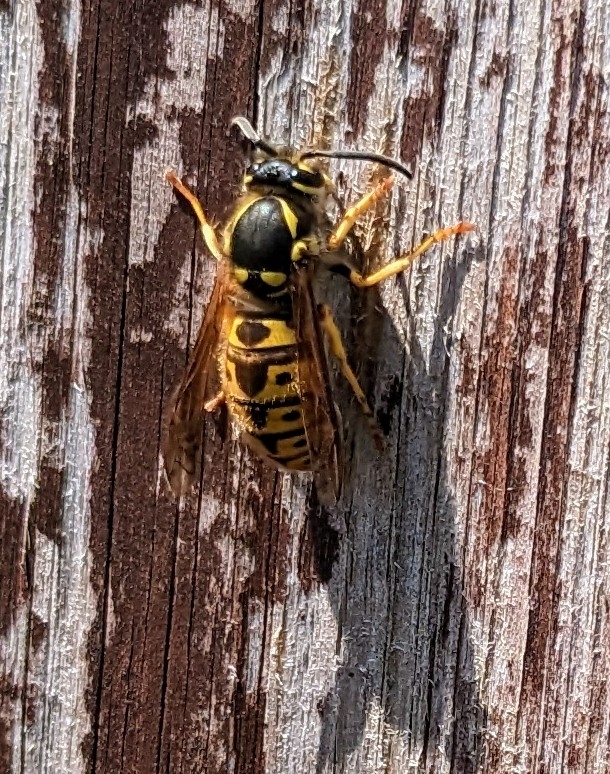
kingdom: Animalia
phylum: Arthropoda
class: Insecta
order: Hymenoptera
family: Vespidae
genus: Vespula
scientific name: Vespula germanica
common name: German wasp
